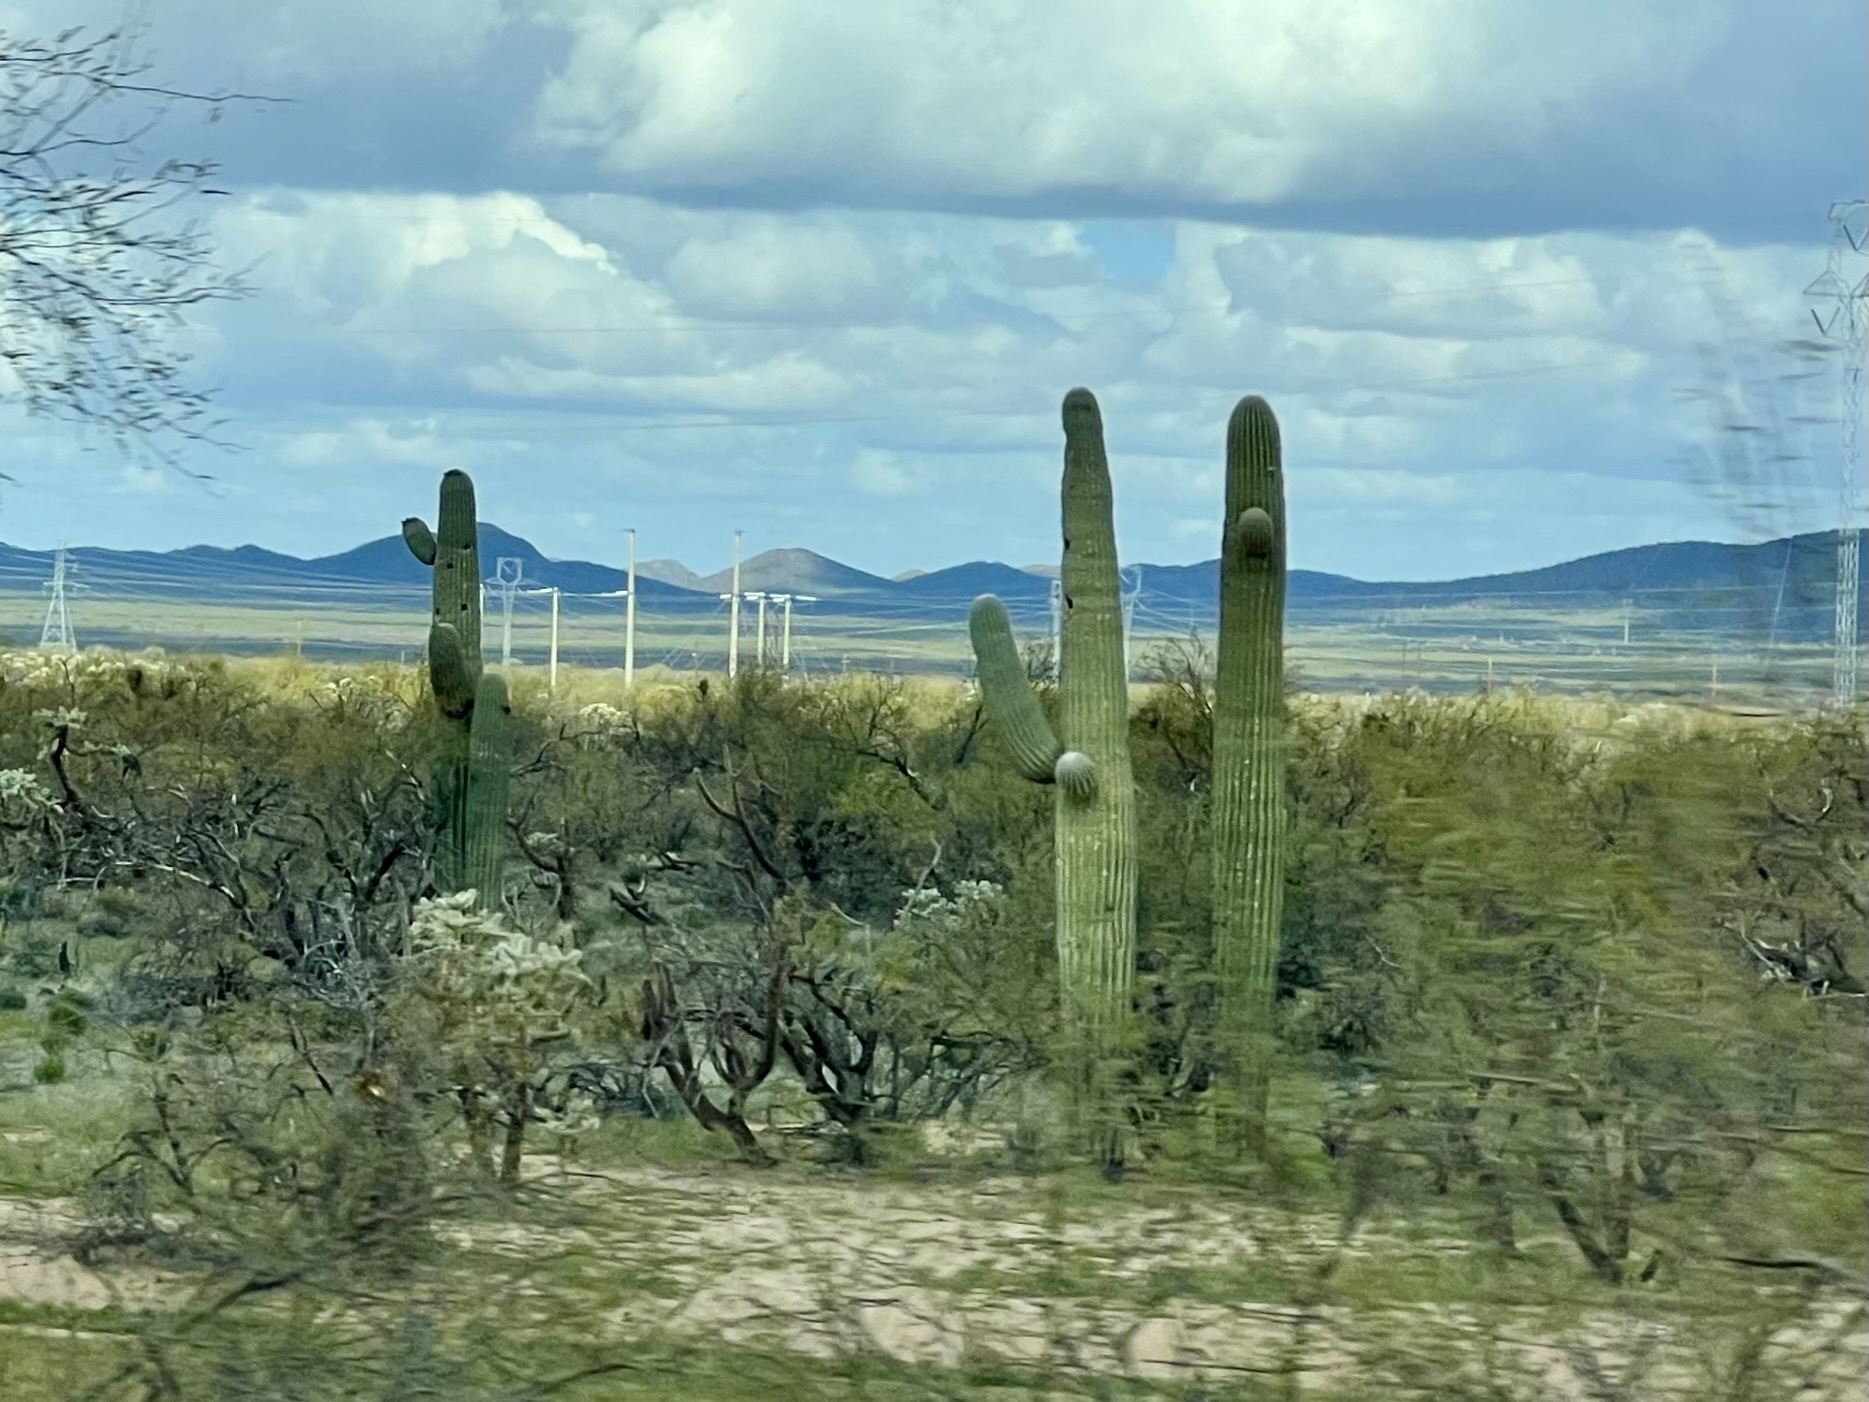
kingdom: Plantae
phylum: Tracheophyta
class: Magnoliopsida
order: Caryophyllales
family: Cactaceae
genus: Carnegiea
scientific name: Carnegiea gigantea
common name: Saguaro
